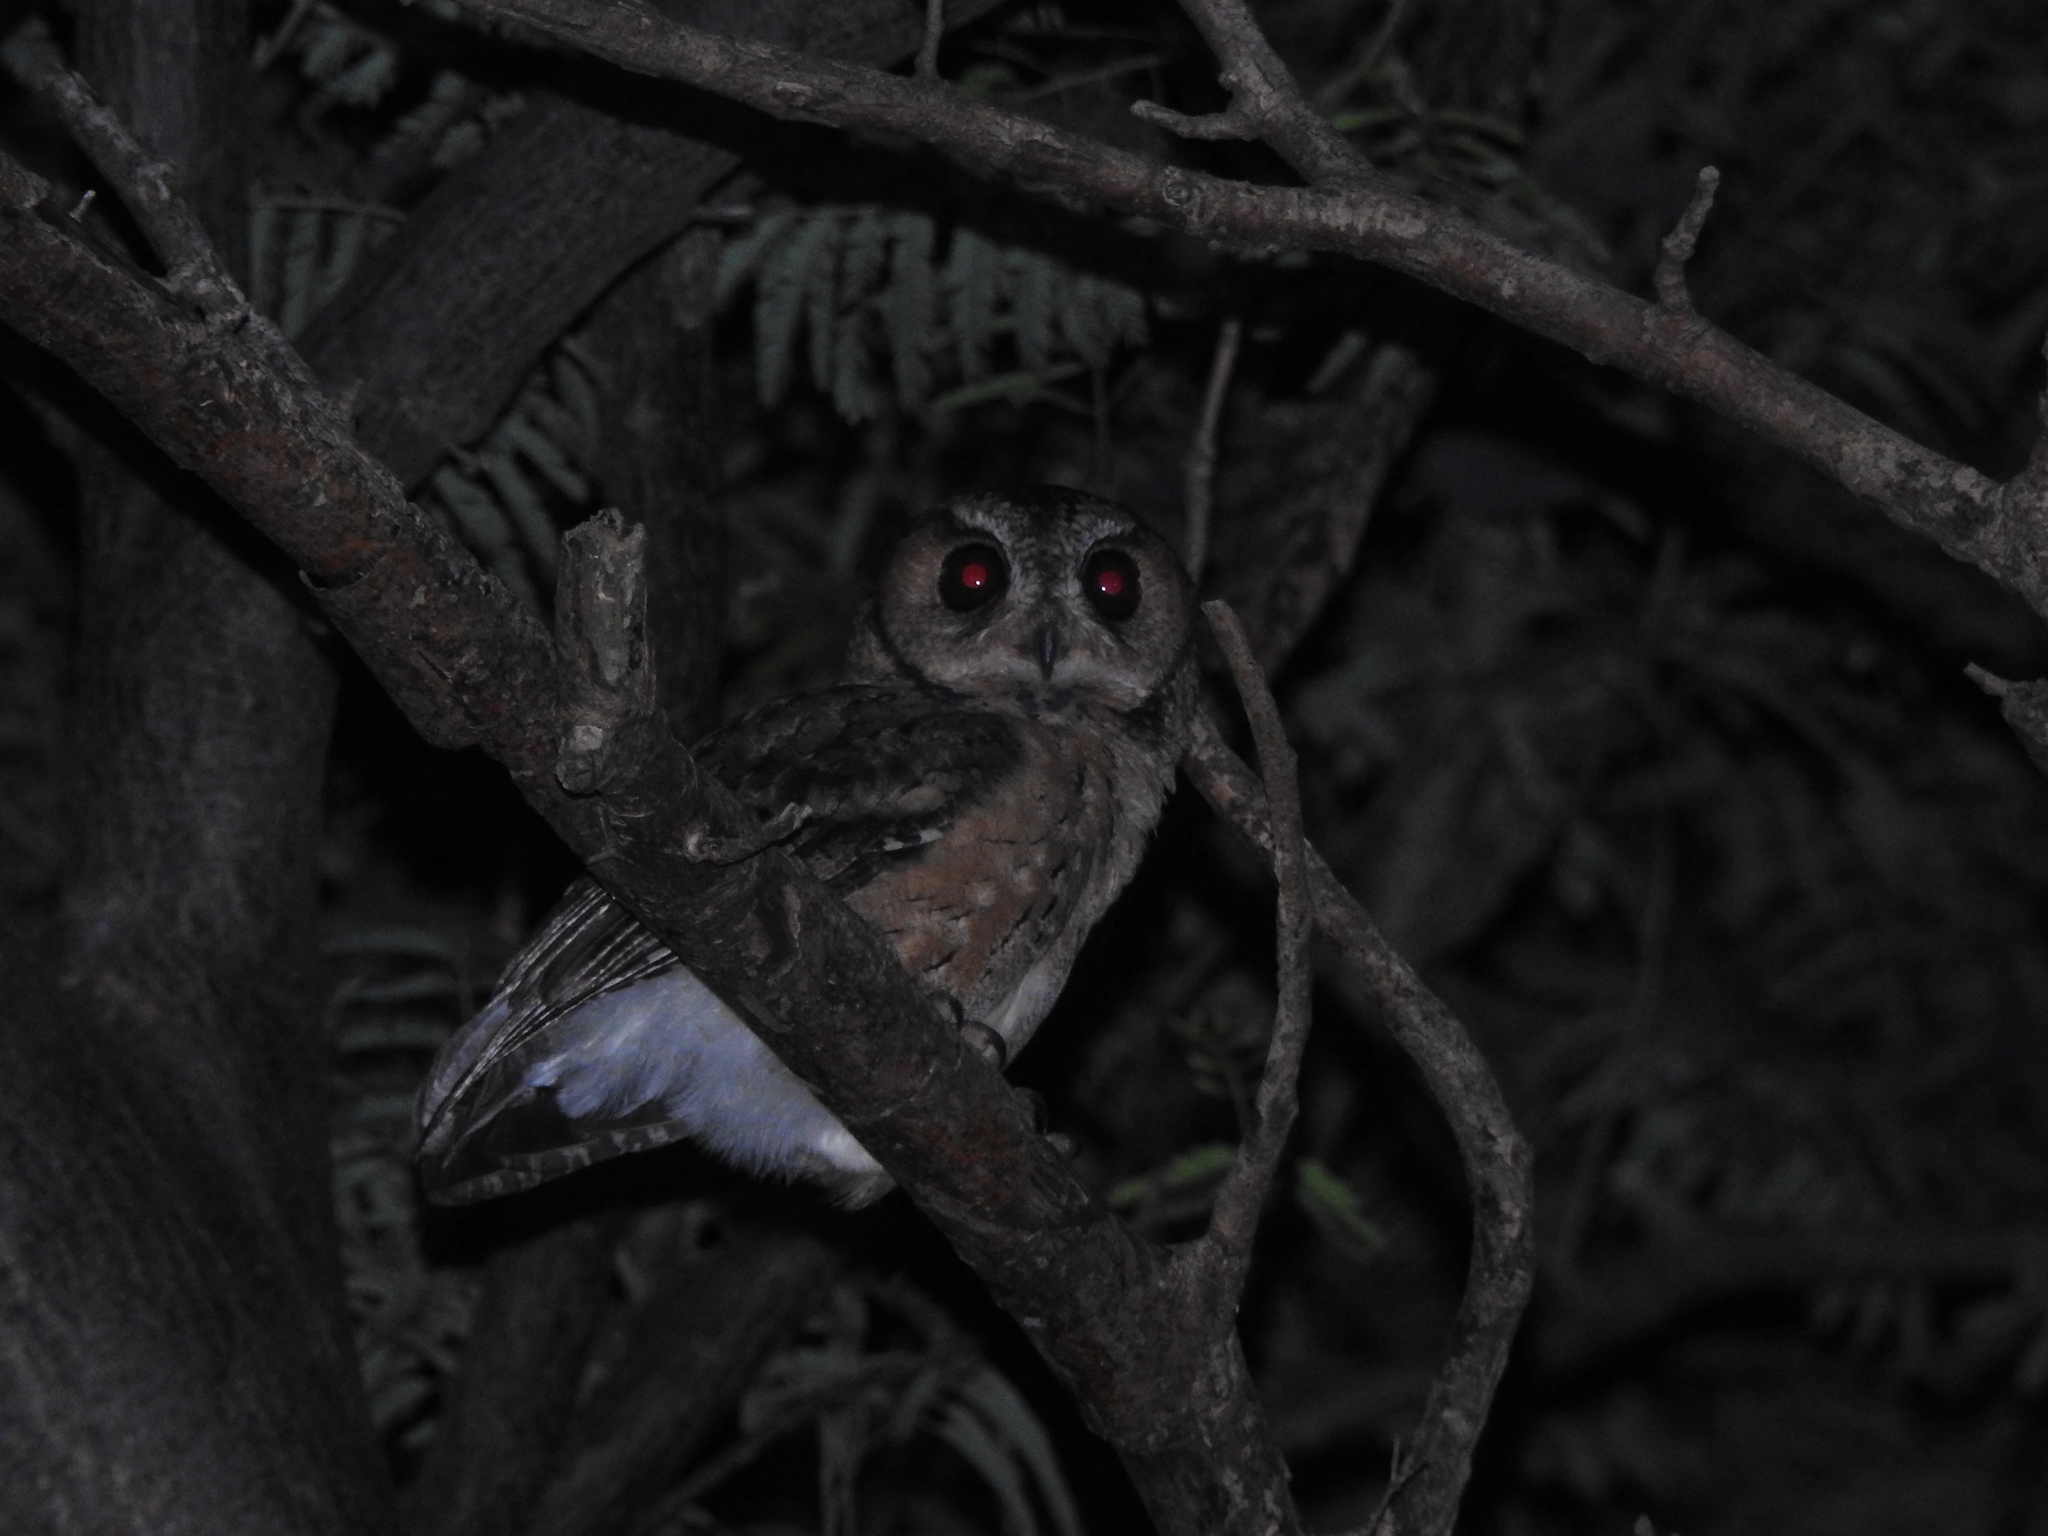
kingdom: Animalia
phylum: Chordata
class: Aves
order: Strigiformes
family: Strigidae
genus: Otus
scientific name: Otus bakkamoena
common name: Indian scops owl
